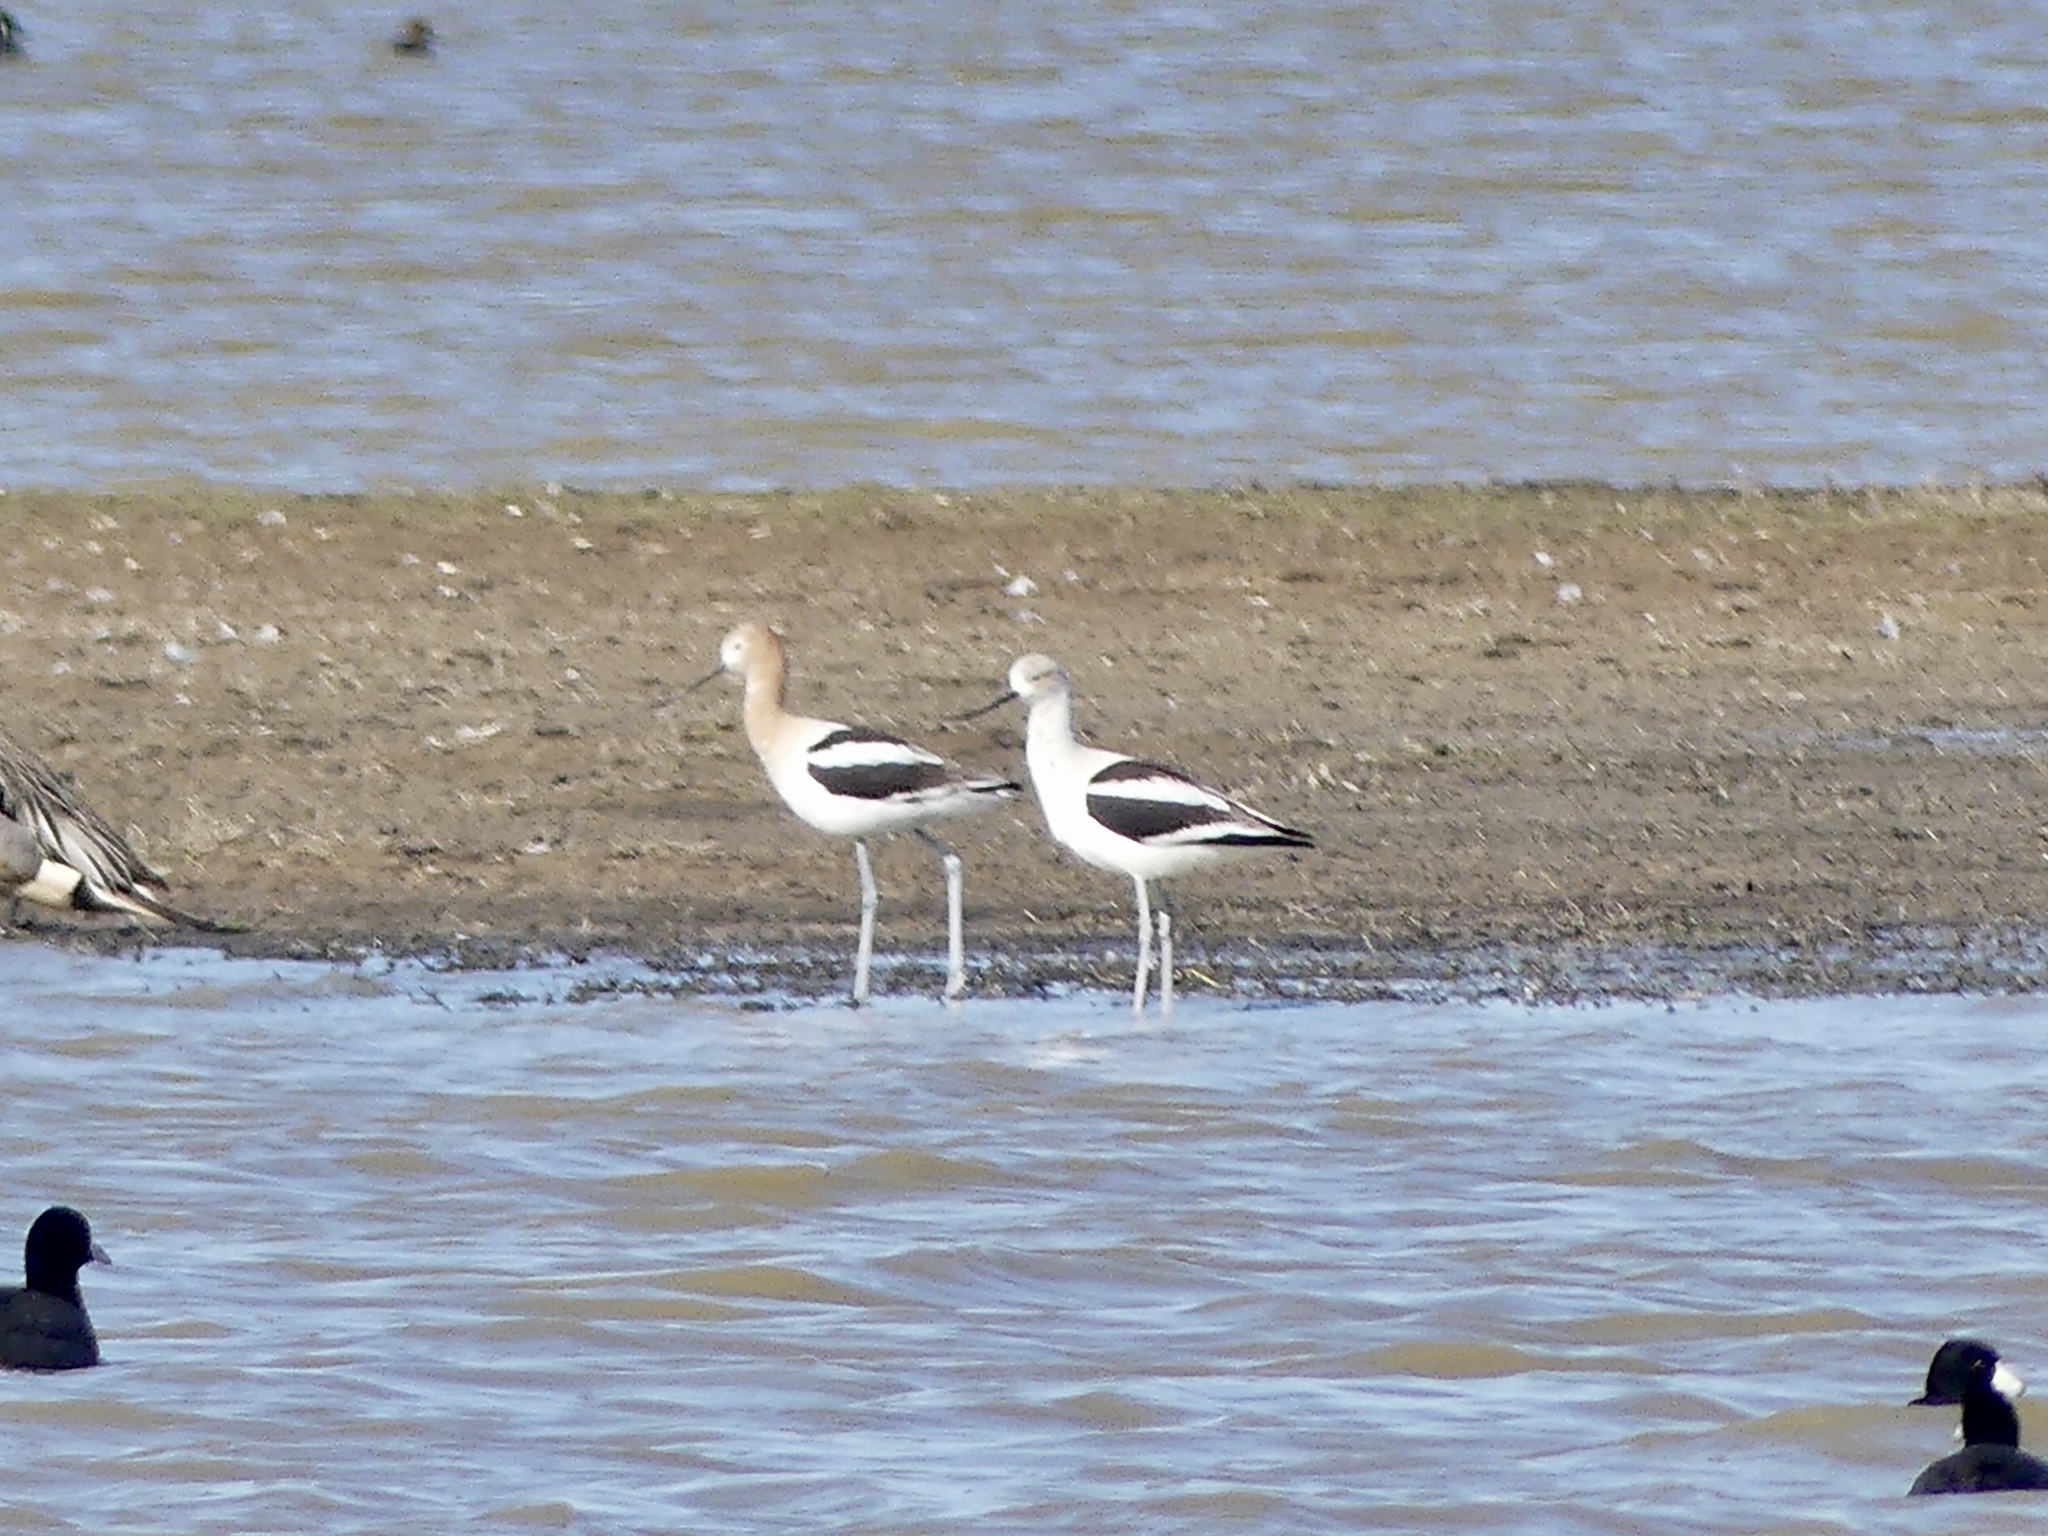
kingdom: Animalia
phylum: Chordata
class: Aves
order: Charadriiformes
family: Recurvirostridae
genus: Recurvirostra
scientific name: Recurvirostra americana
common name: American avocet
